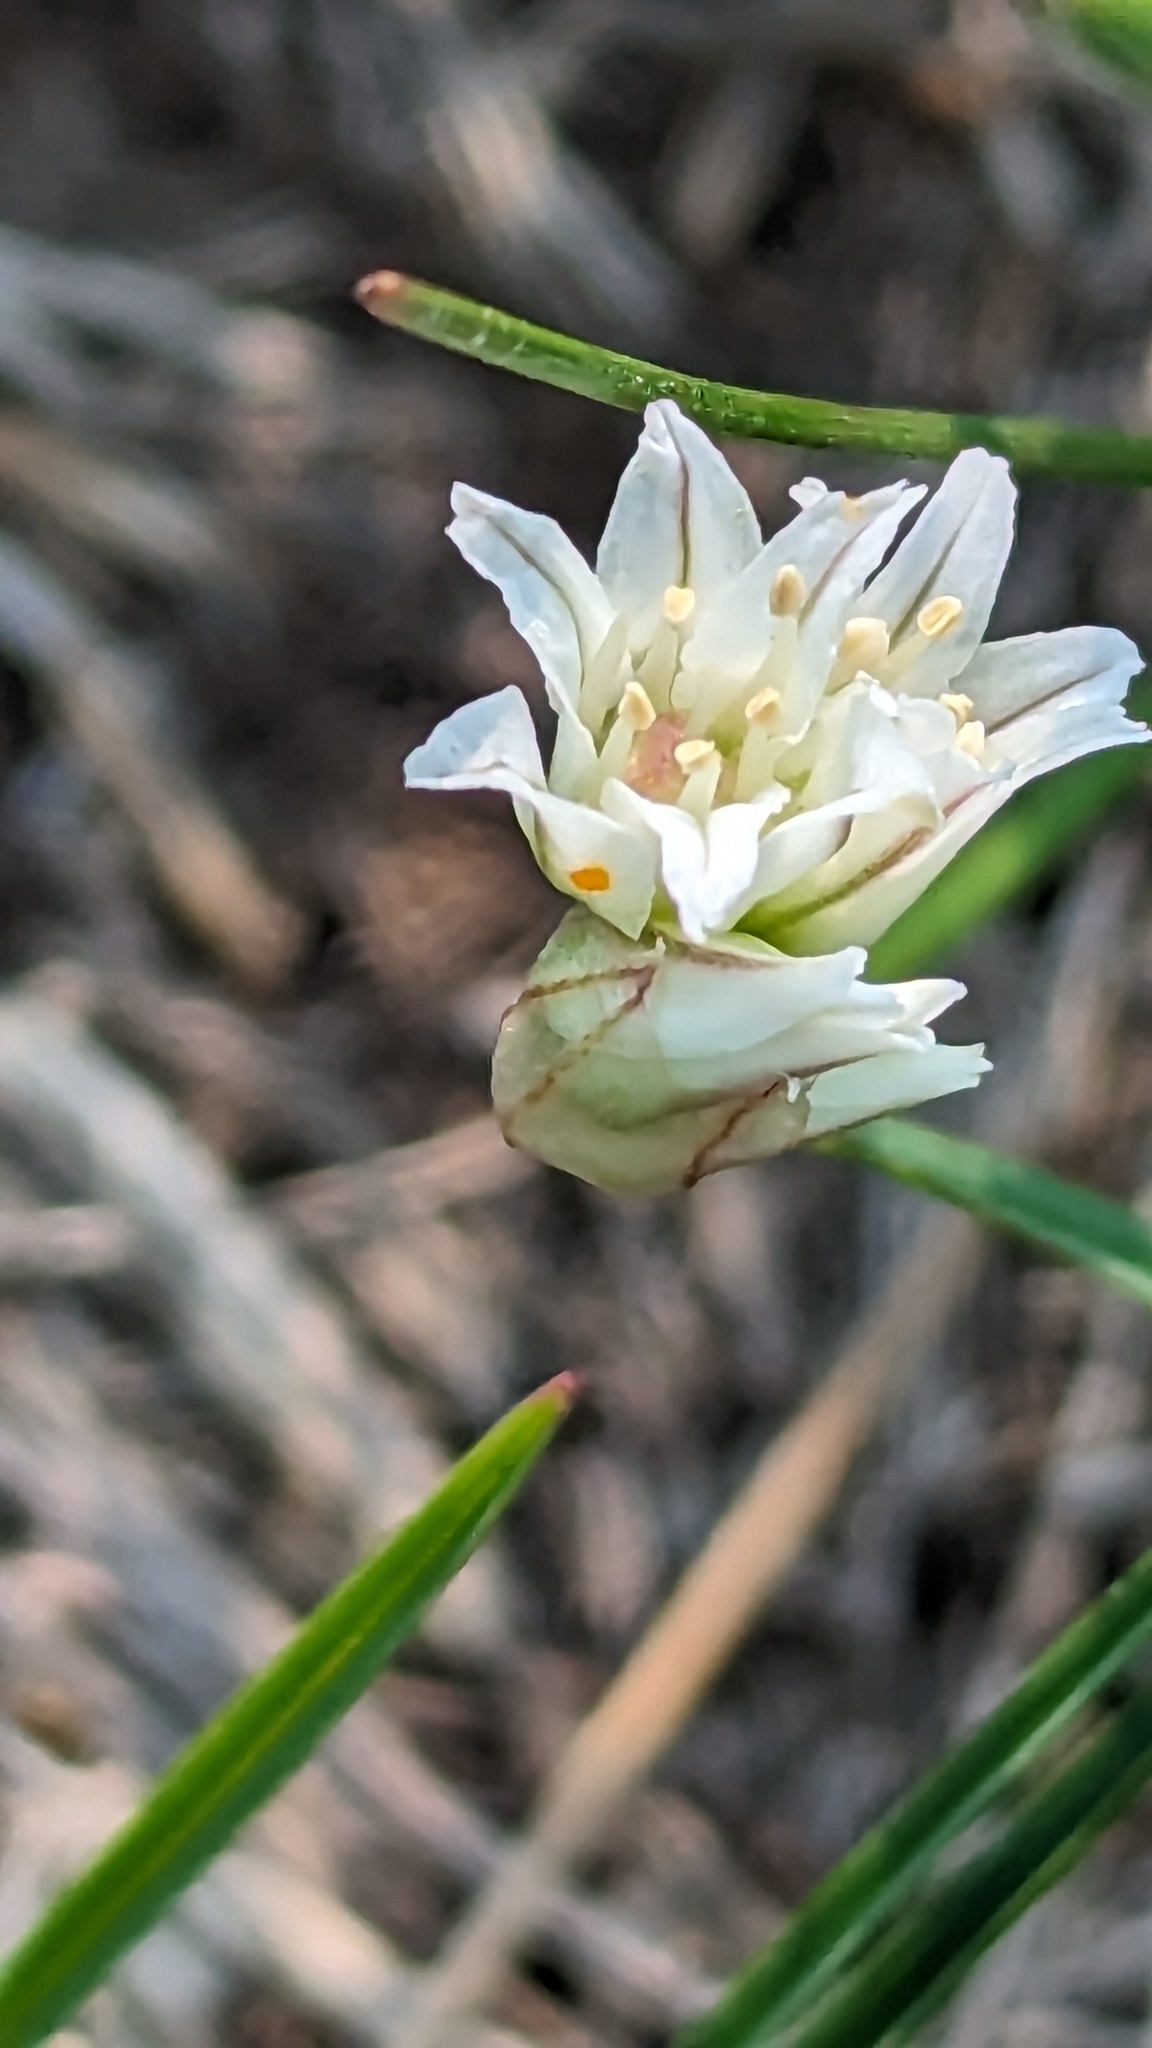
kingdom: Plantae
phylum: Tracheophyta
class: Liliopsida
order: Asparagales
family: Amaryllidaceae
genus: Allium
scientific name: Allium textile
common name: Prairie onion
